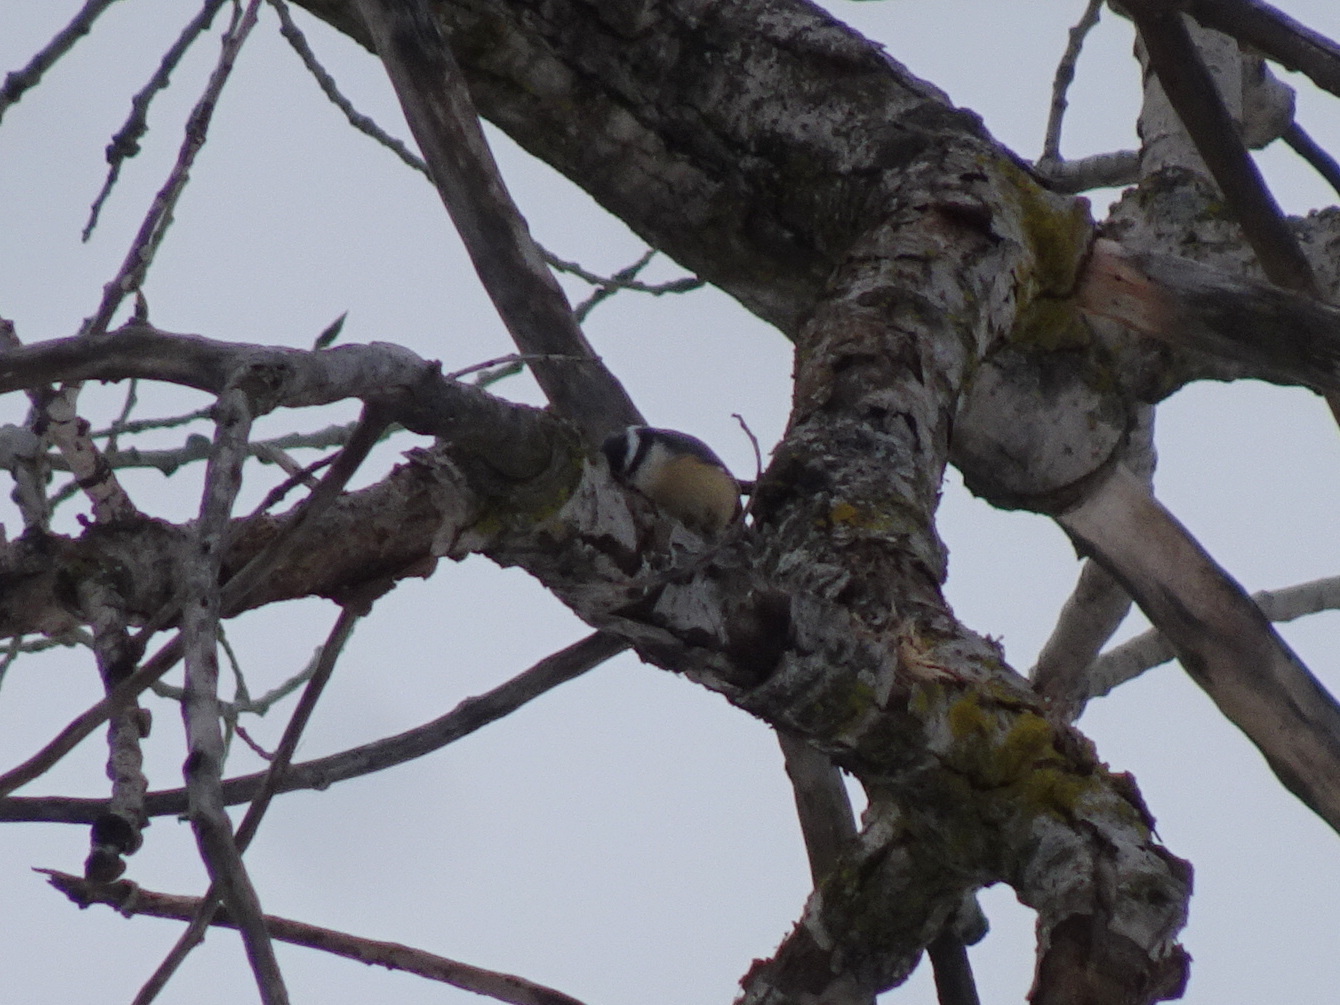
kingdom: Animalia
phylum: Chordata
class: Aves
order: Passeriformes
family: Sittidae
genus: Sitta
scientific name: Sitta canadensis
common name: Red-breasted nuthatch
